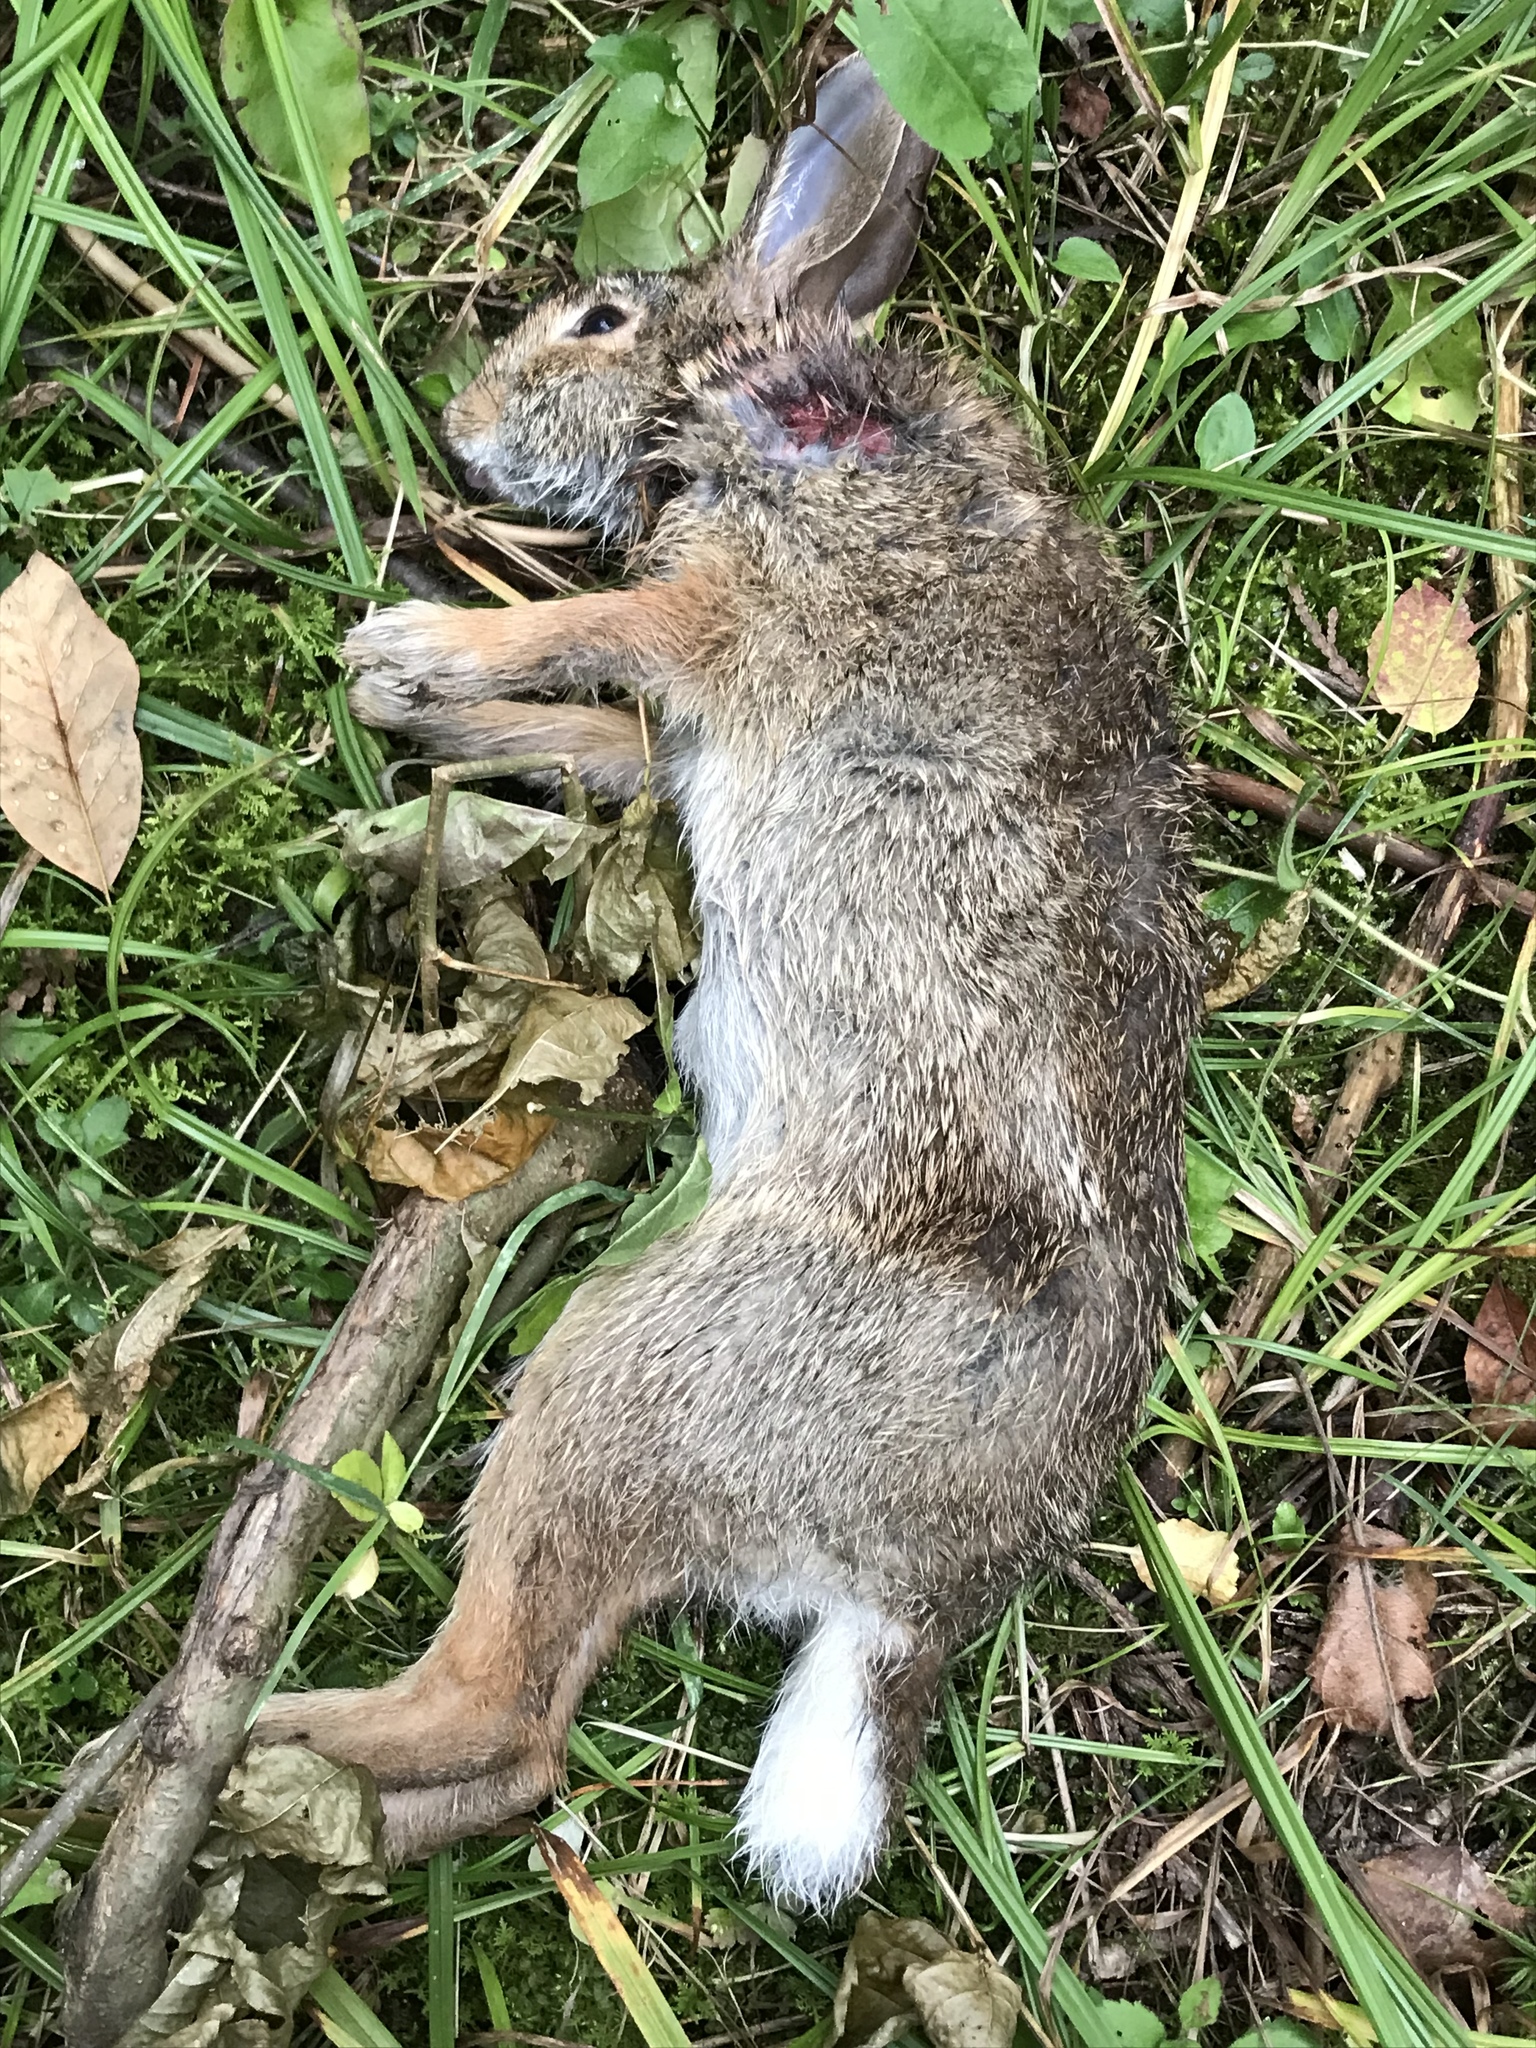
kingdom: Animalia
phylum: Chordata
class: Mammalia
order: Lagomorpha
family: Leporidae
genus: Sylvilagus
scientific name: Sylvilagus floridanus
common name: Eastern cottontail
